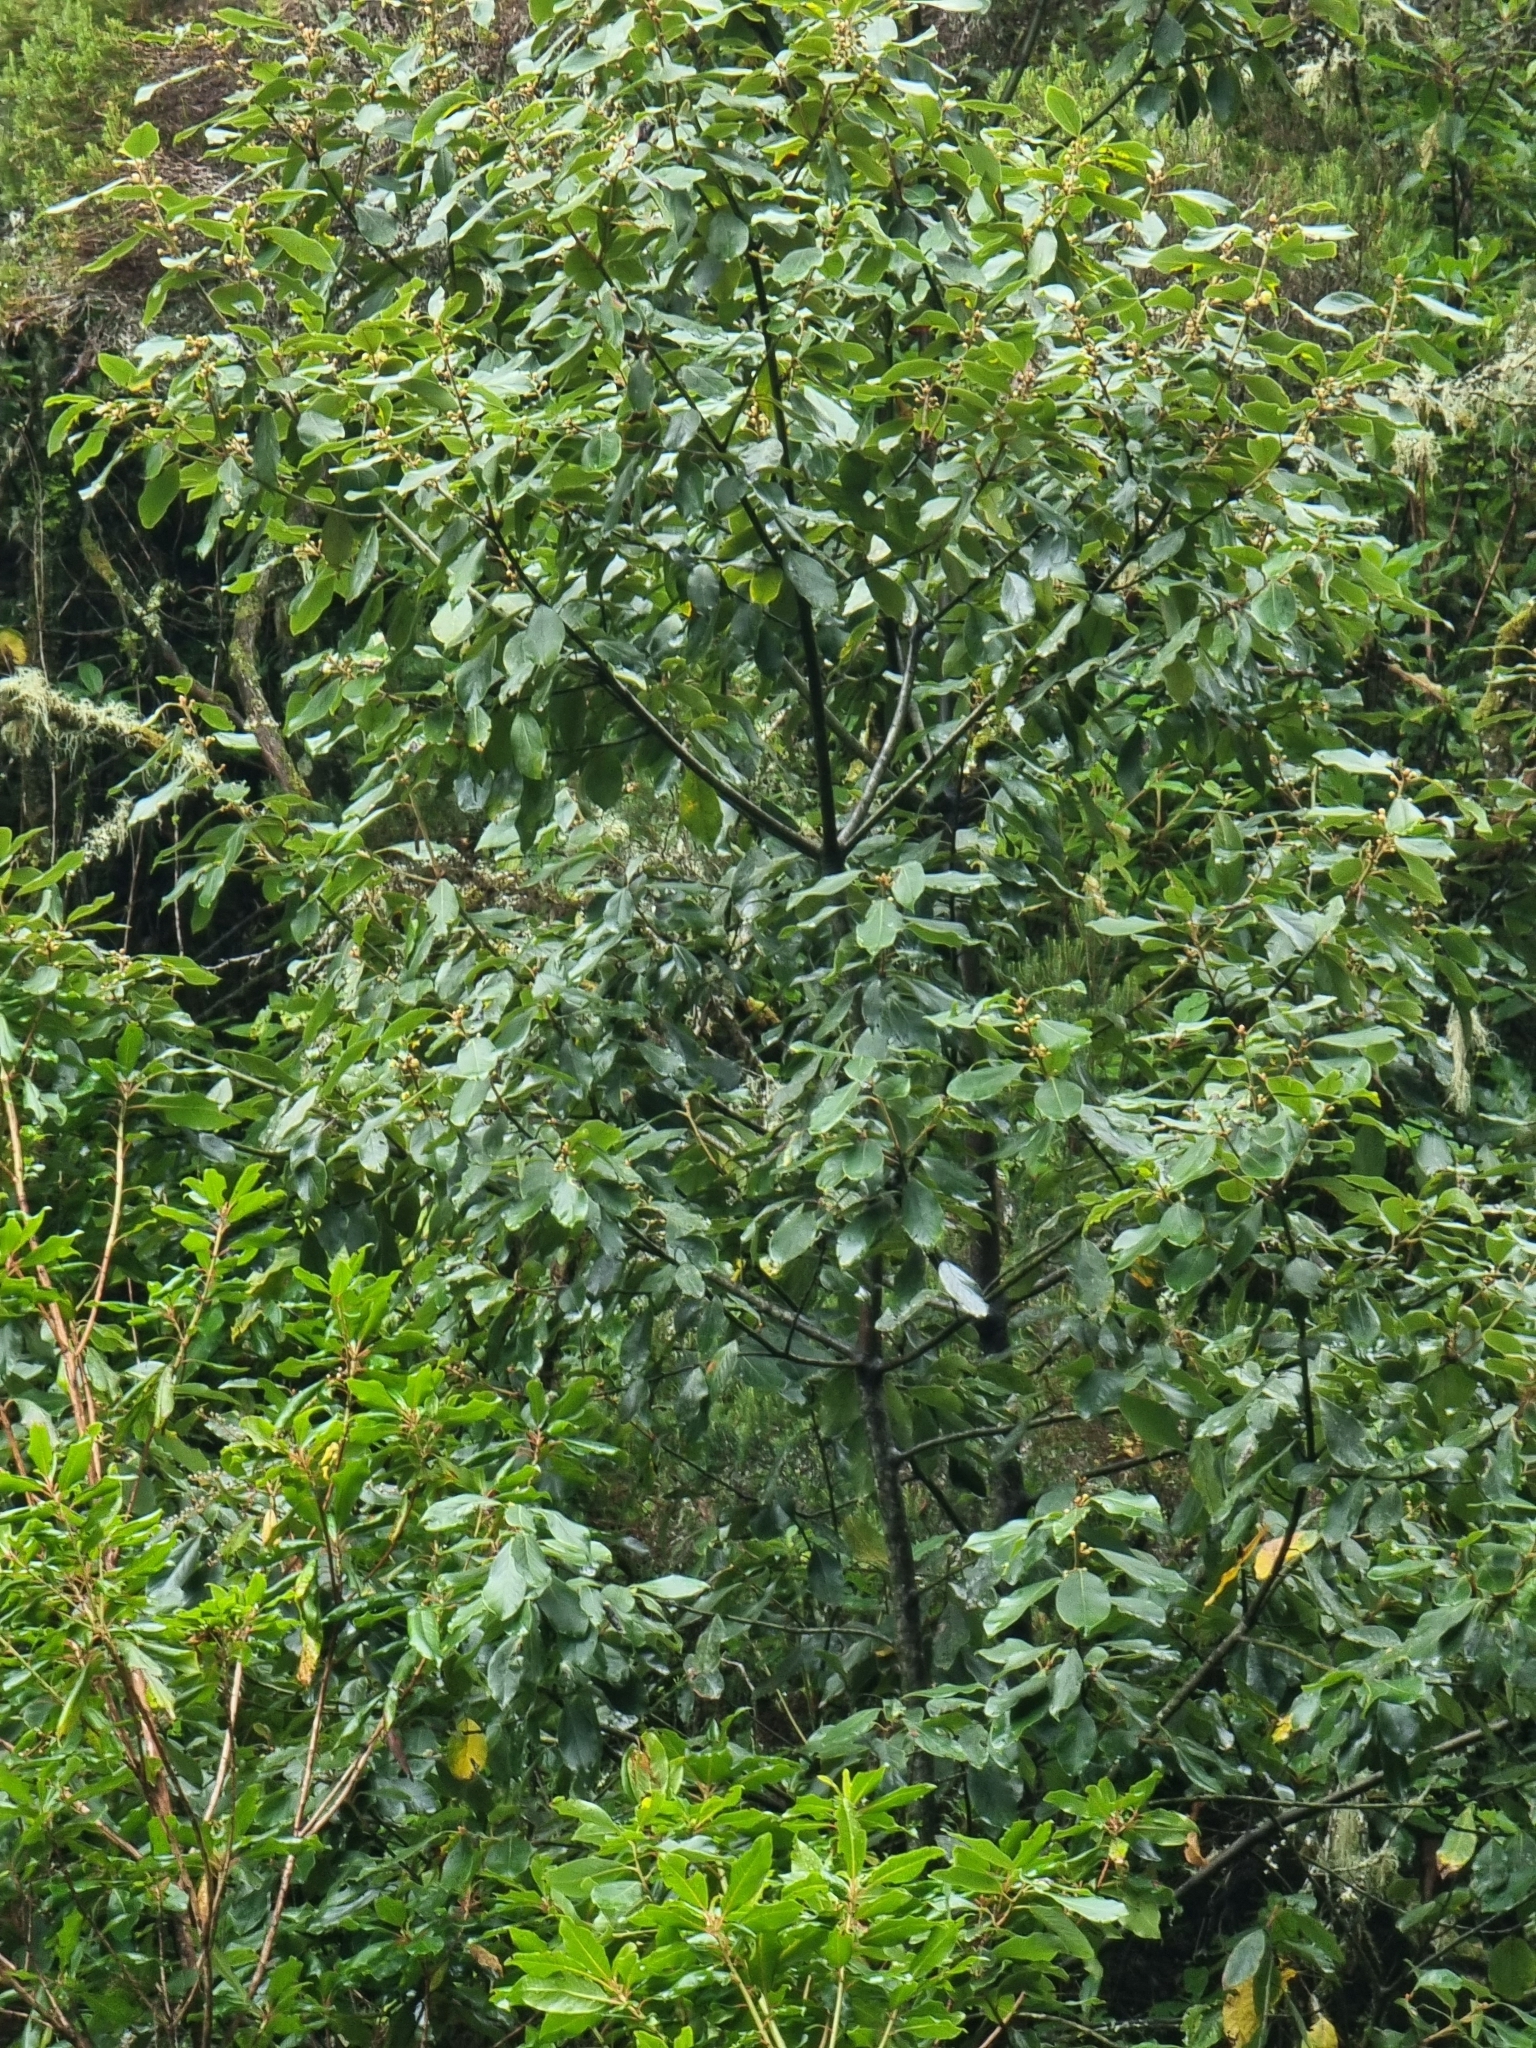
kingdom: Plantae
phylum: Tracheophyta
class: Magnoliopsida
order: Laurales
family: Lauraceae
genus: Laurus
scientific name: Laurus novocanariensis
